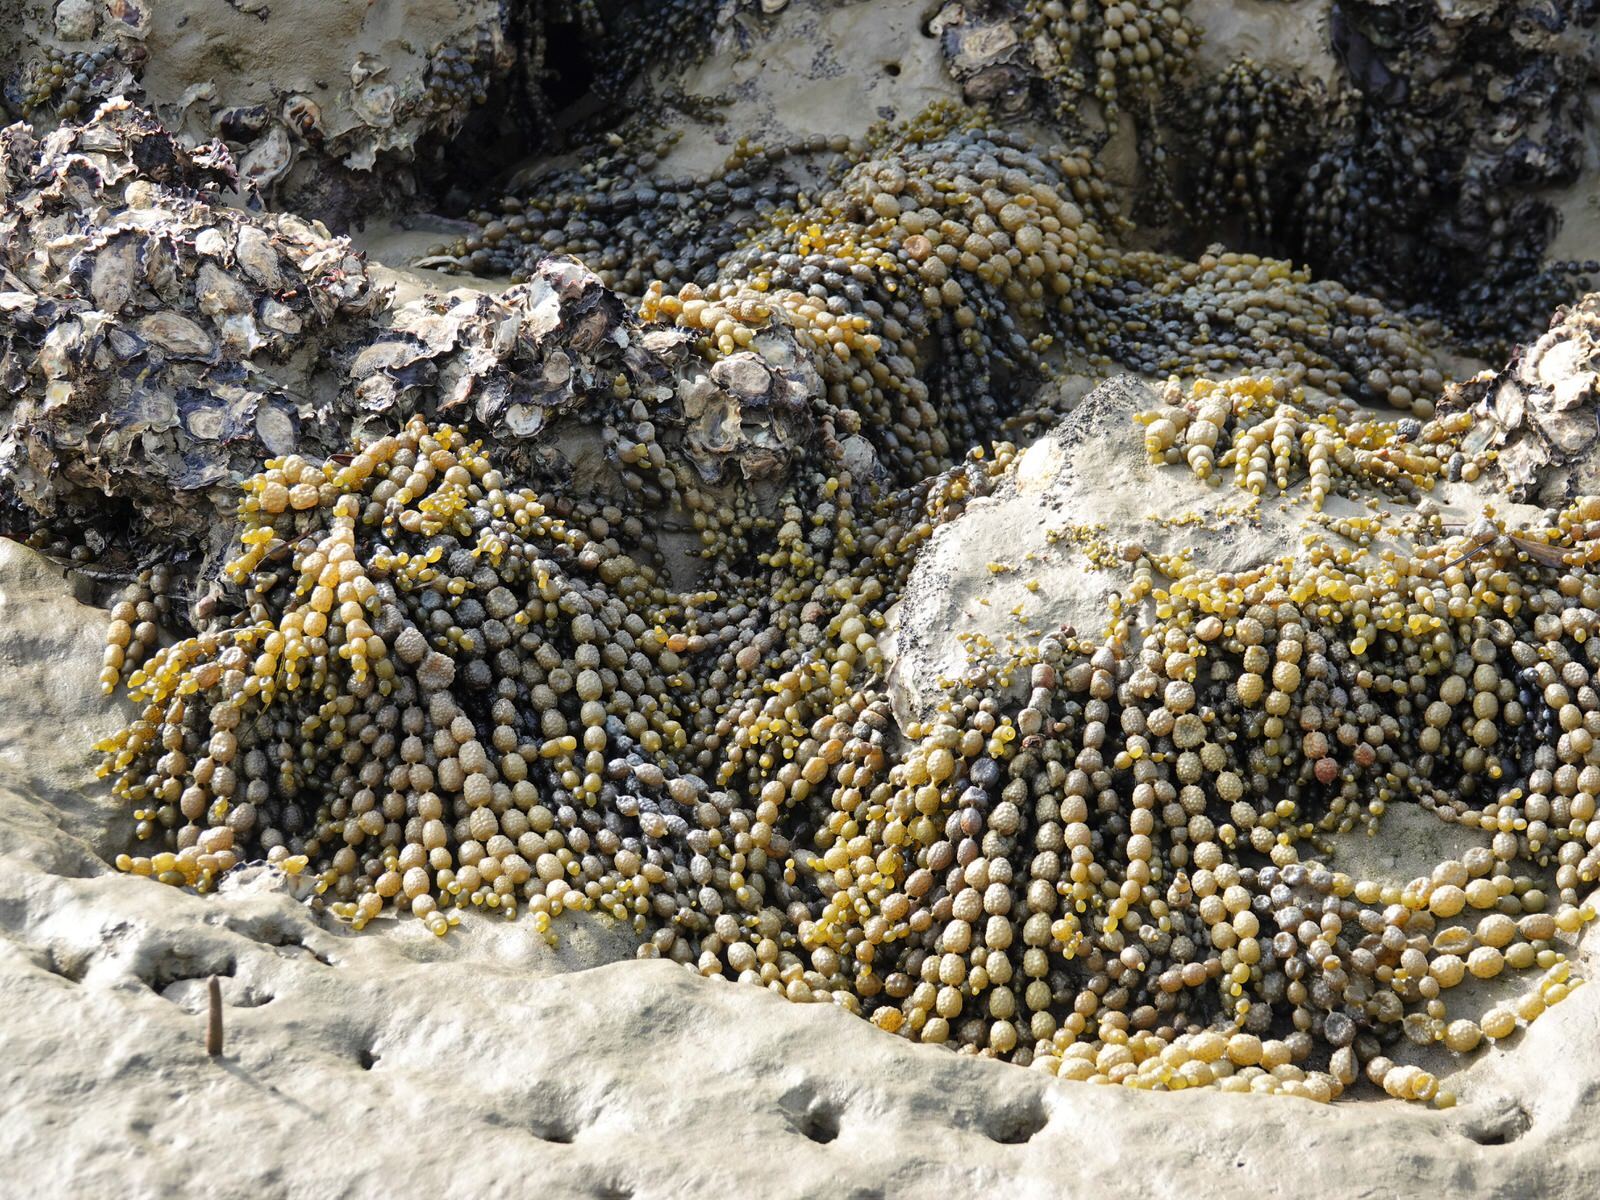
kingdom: Chromista
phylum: Ochrophyta
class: Phaeophyceae
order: Fucales
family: Hormosiraceae
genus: Hormosira
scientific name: Hormosira banksii
